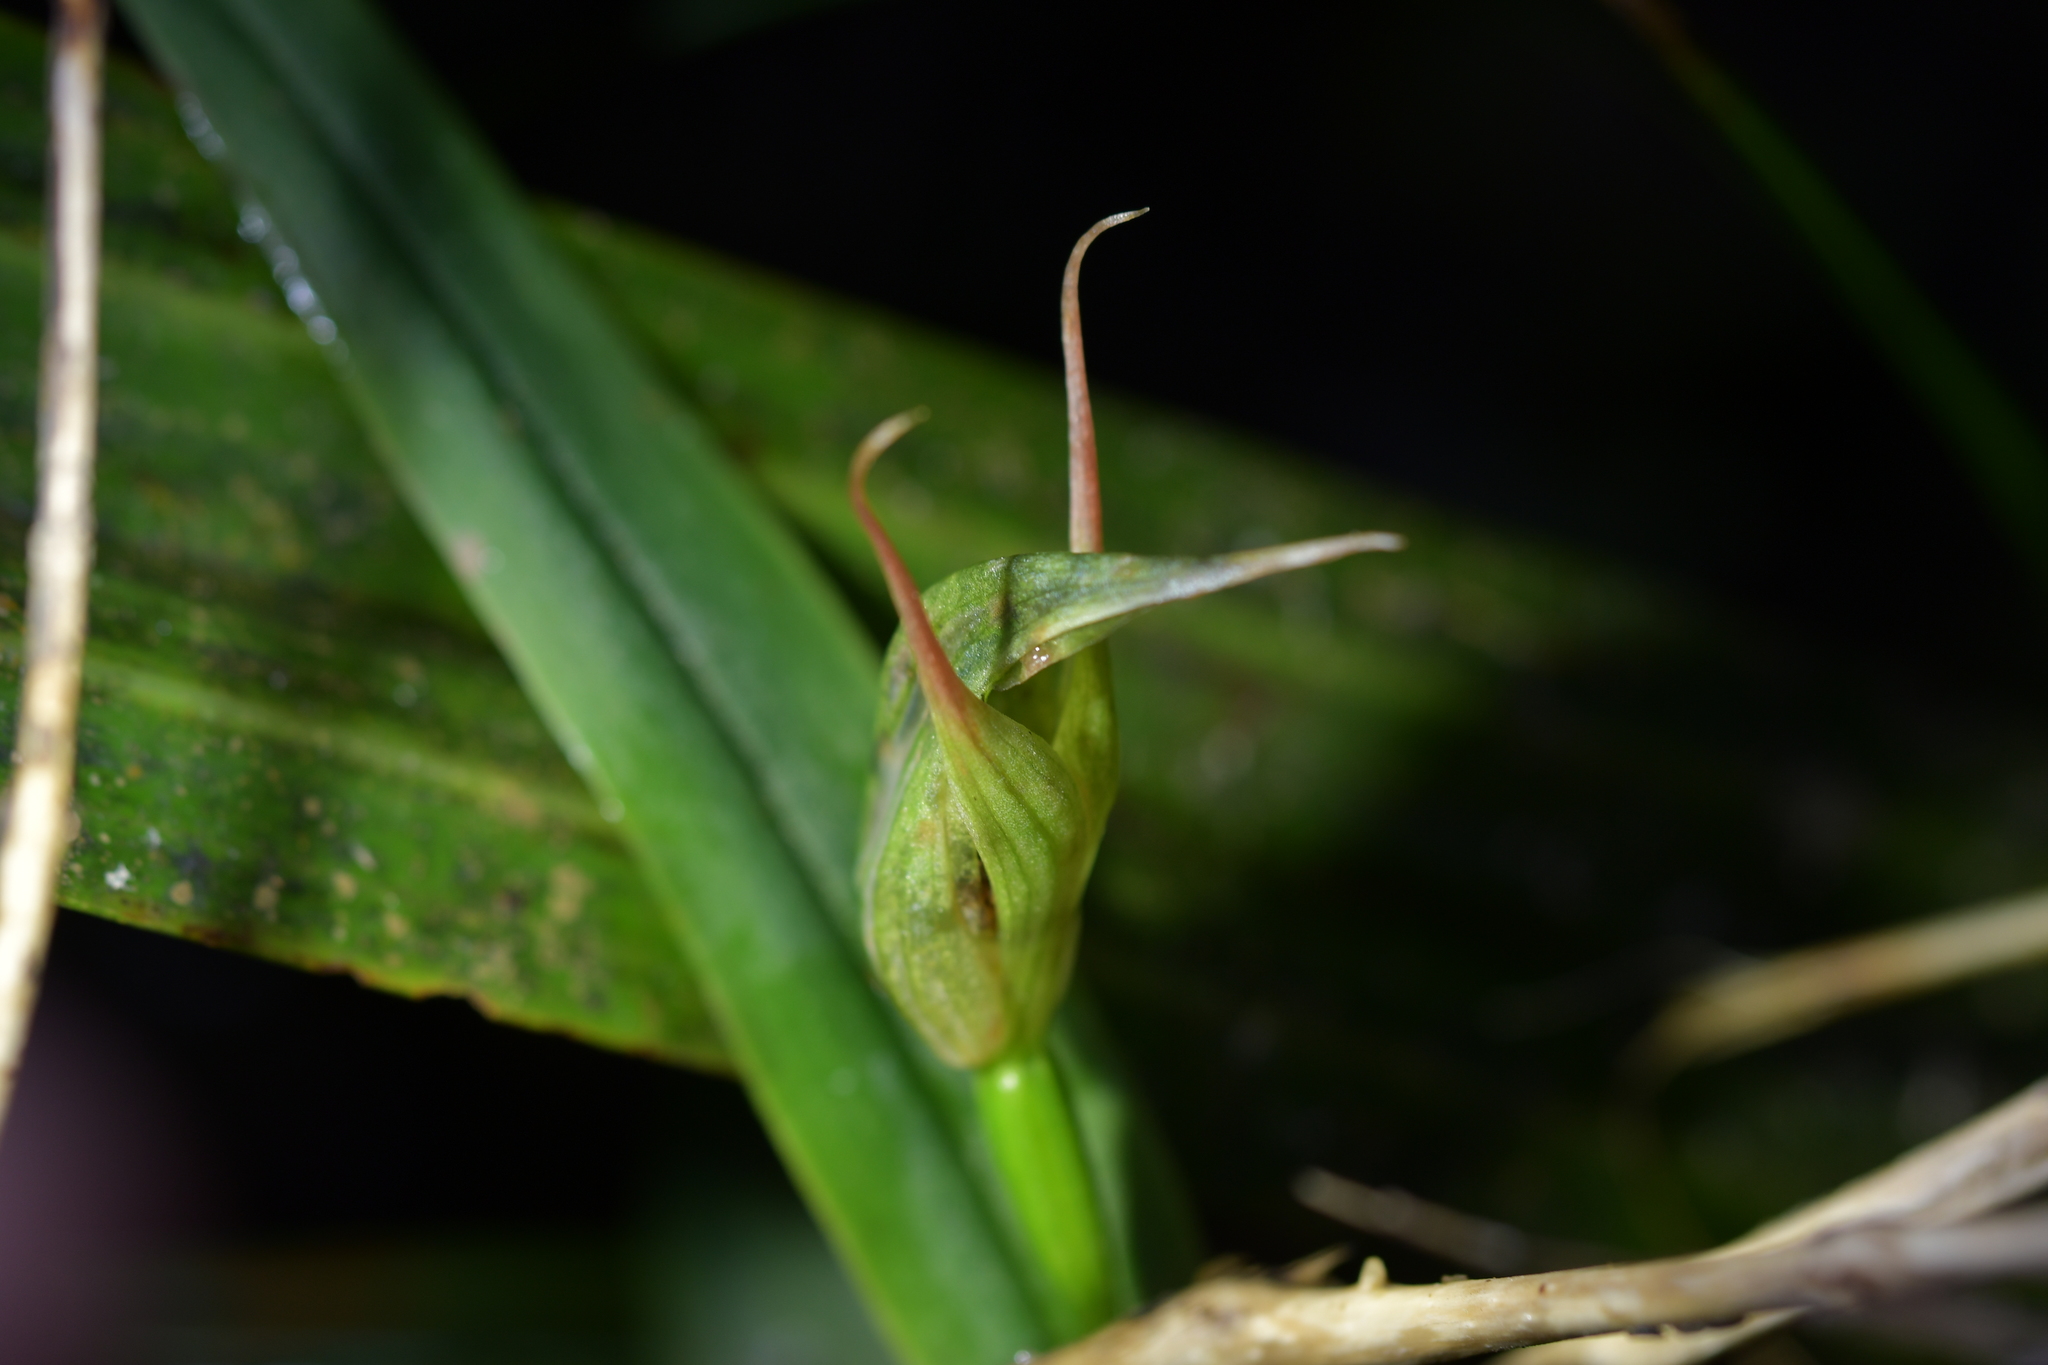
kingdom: Plantae
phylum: Tracheophyta
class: Liliopsida
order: Asparagales
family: Orchidaceae
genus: Pterostylis
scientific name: Pterostylis auriculata
